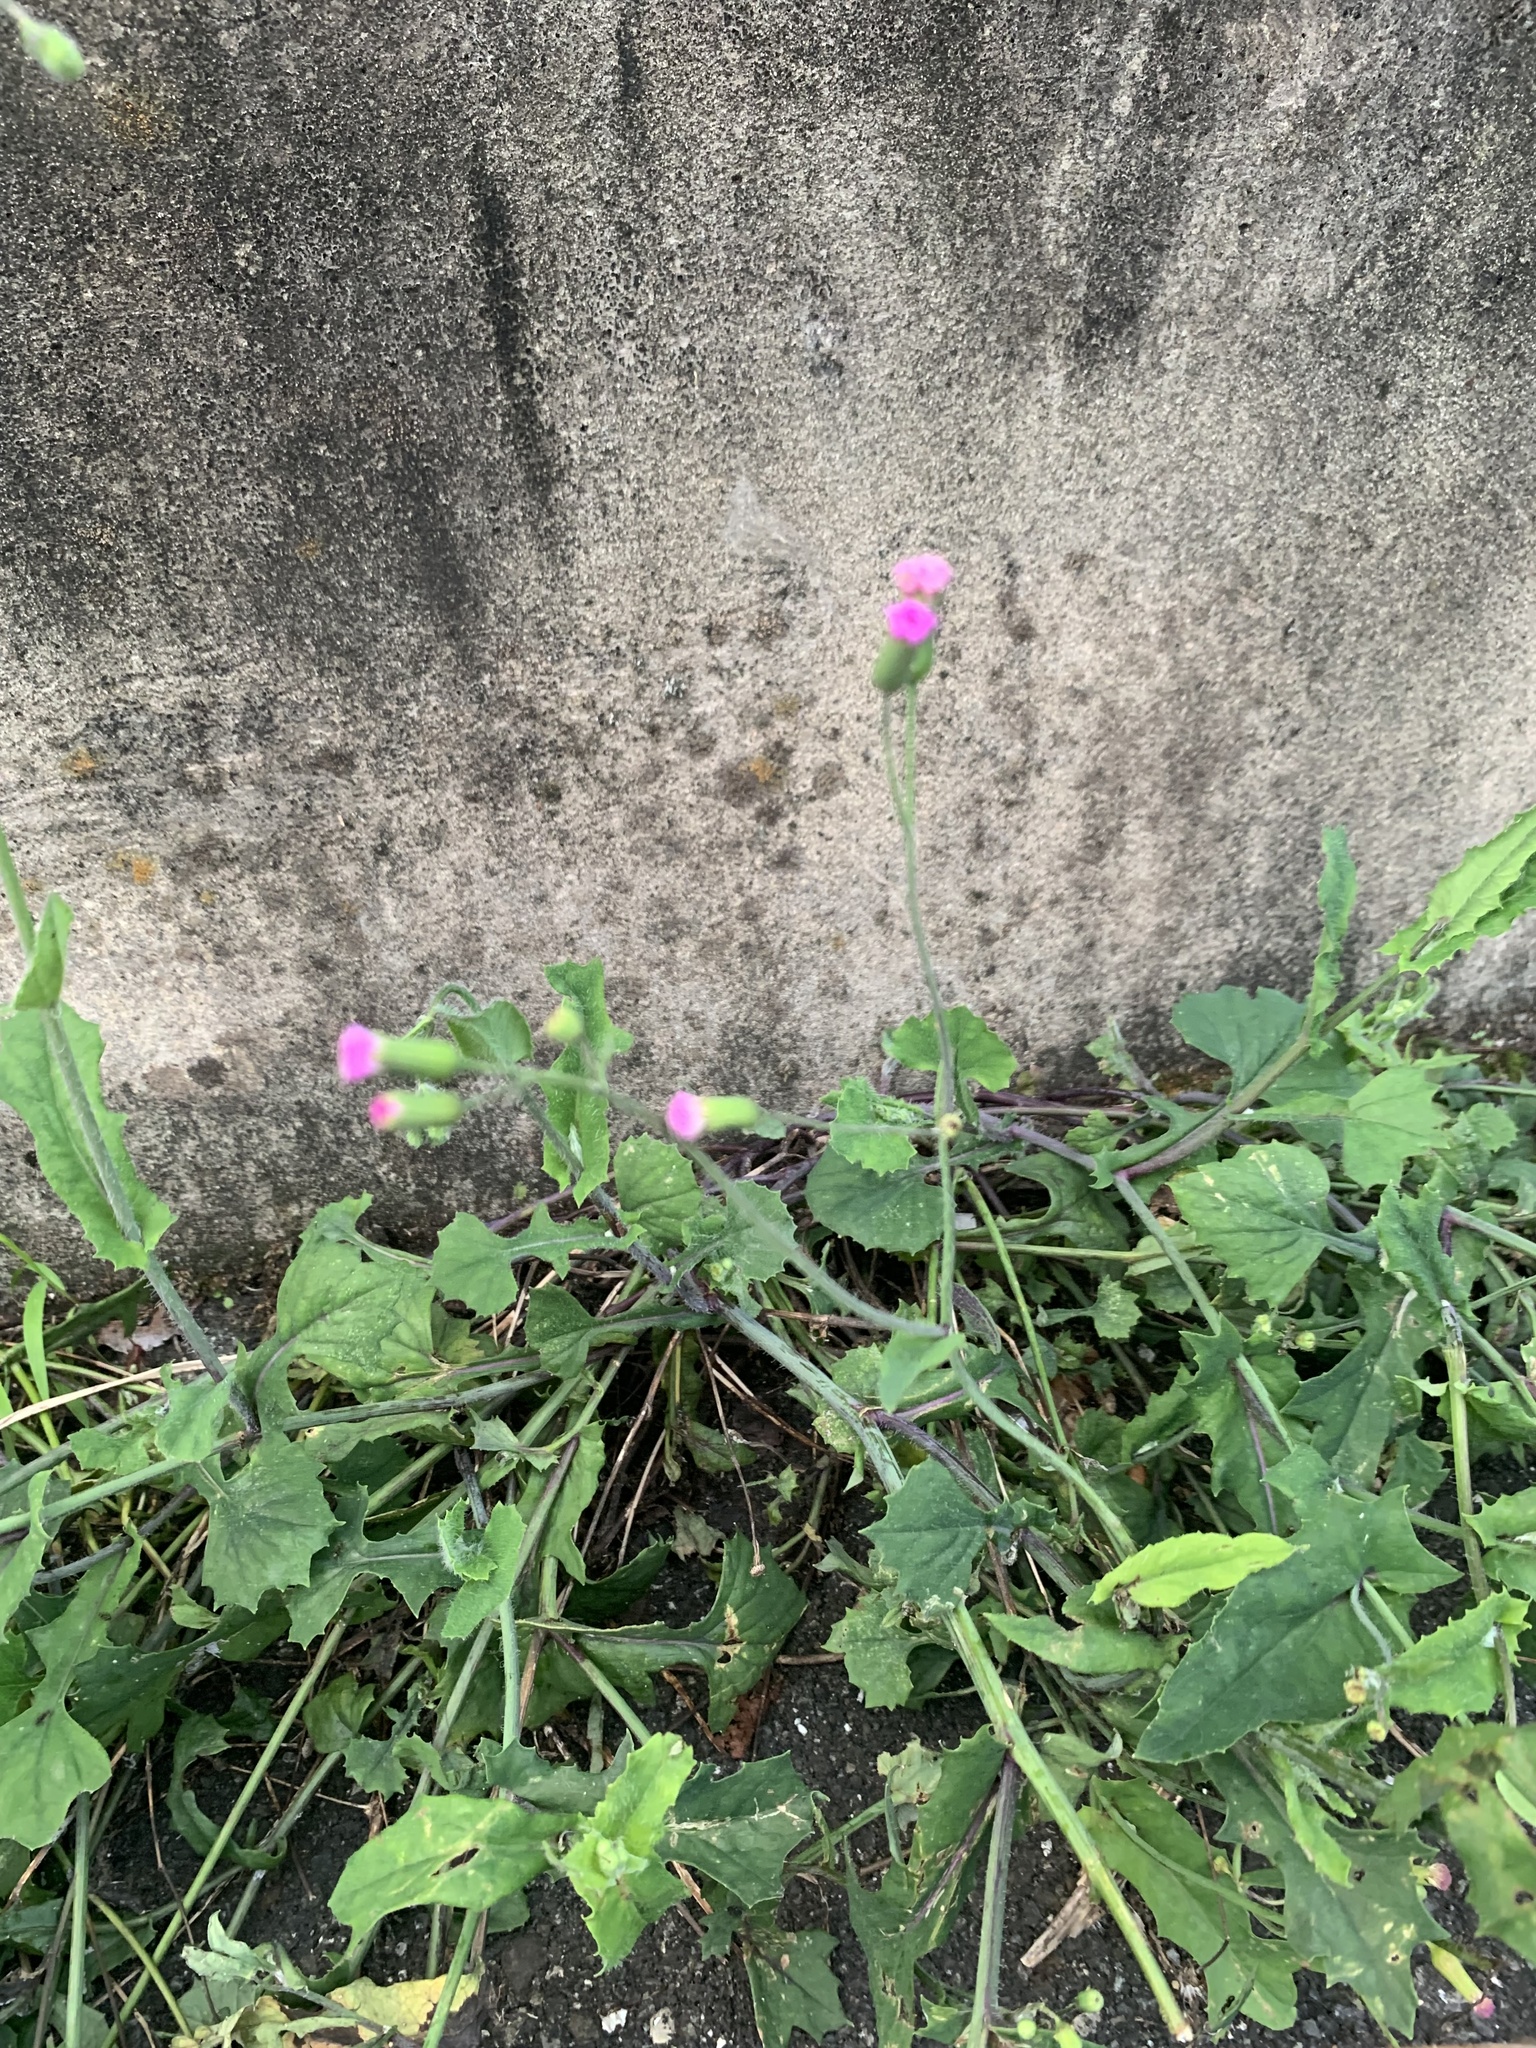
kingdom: Plantae
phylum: Tracheophyta
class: Magnoliopsida
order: Asterales
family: Asteraceae
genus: Emilia
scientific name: Emilia sonchifolia
